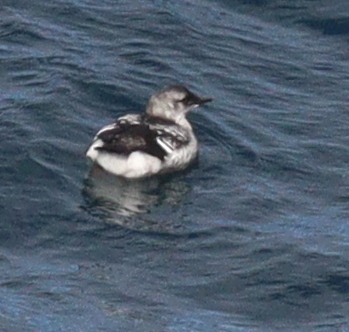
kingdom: Animalia
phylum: Chordata
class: Aves
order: Charadriiformes
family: Alcidae
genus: Cepphus
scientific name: Cepphus grylle
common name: Black guillemot
